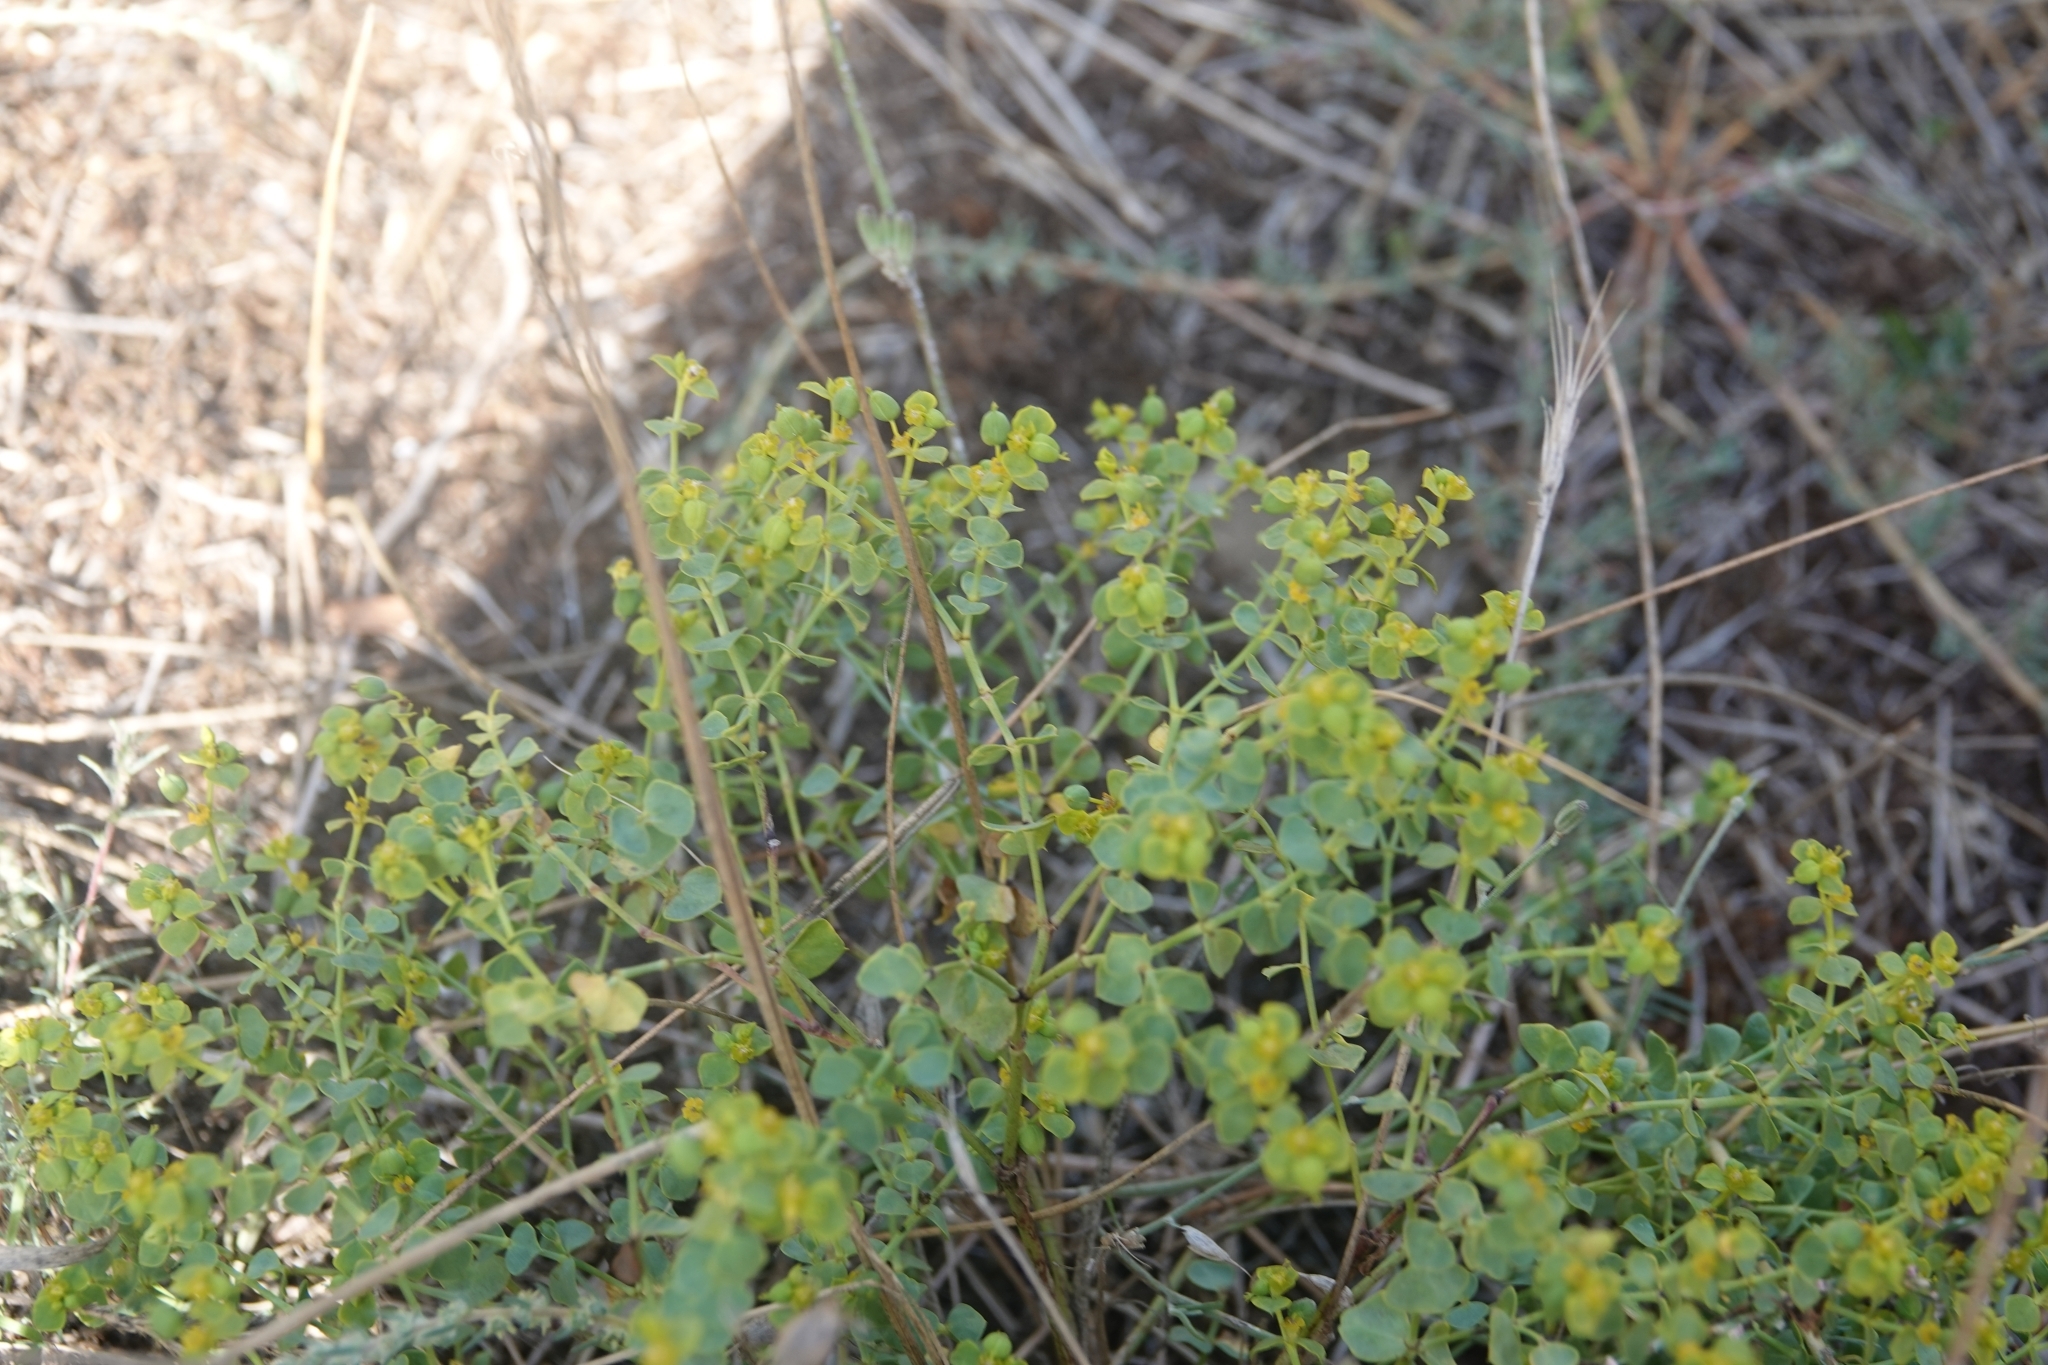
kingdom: Plantae
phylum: Tracheophyta
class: Magnoliopsida
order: Malpighiales
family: Euphorbiaceae
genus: Euphorbia
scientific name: Euphorbia seguieriana
